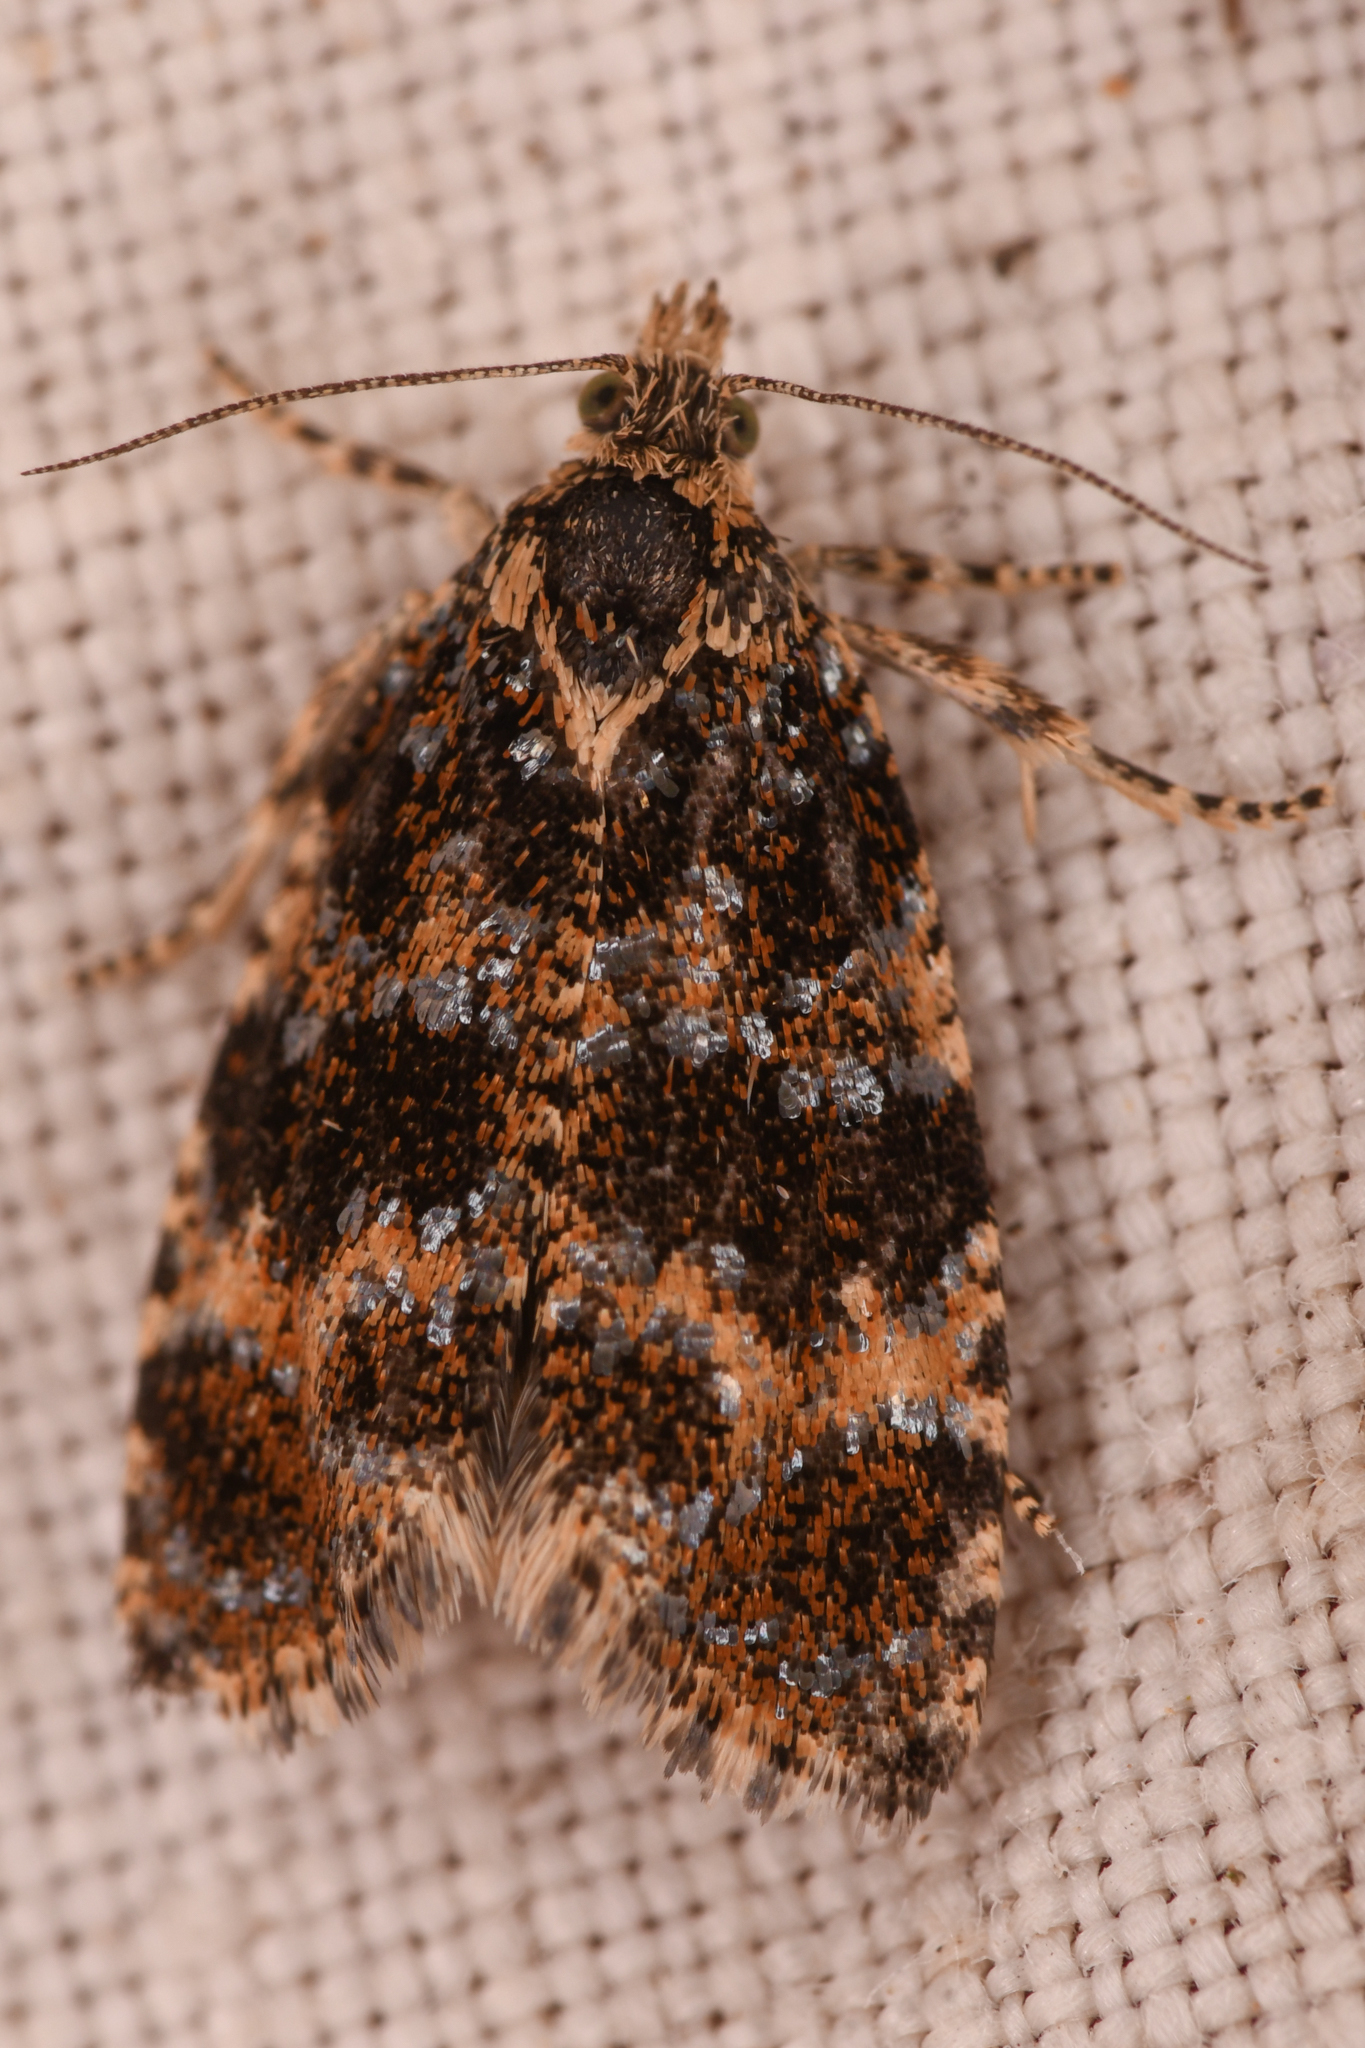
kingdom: Animalia
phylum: Arthropoda
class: Insecta
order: Lepidoptera
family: Tortricidae
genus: Olethreutes
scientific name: Olethreutes galaxana
